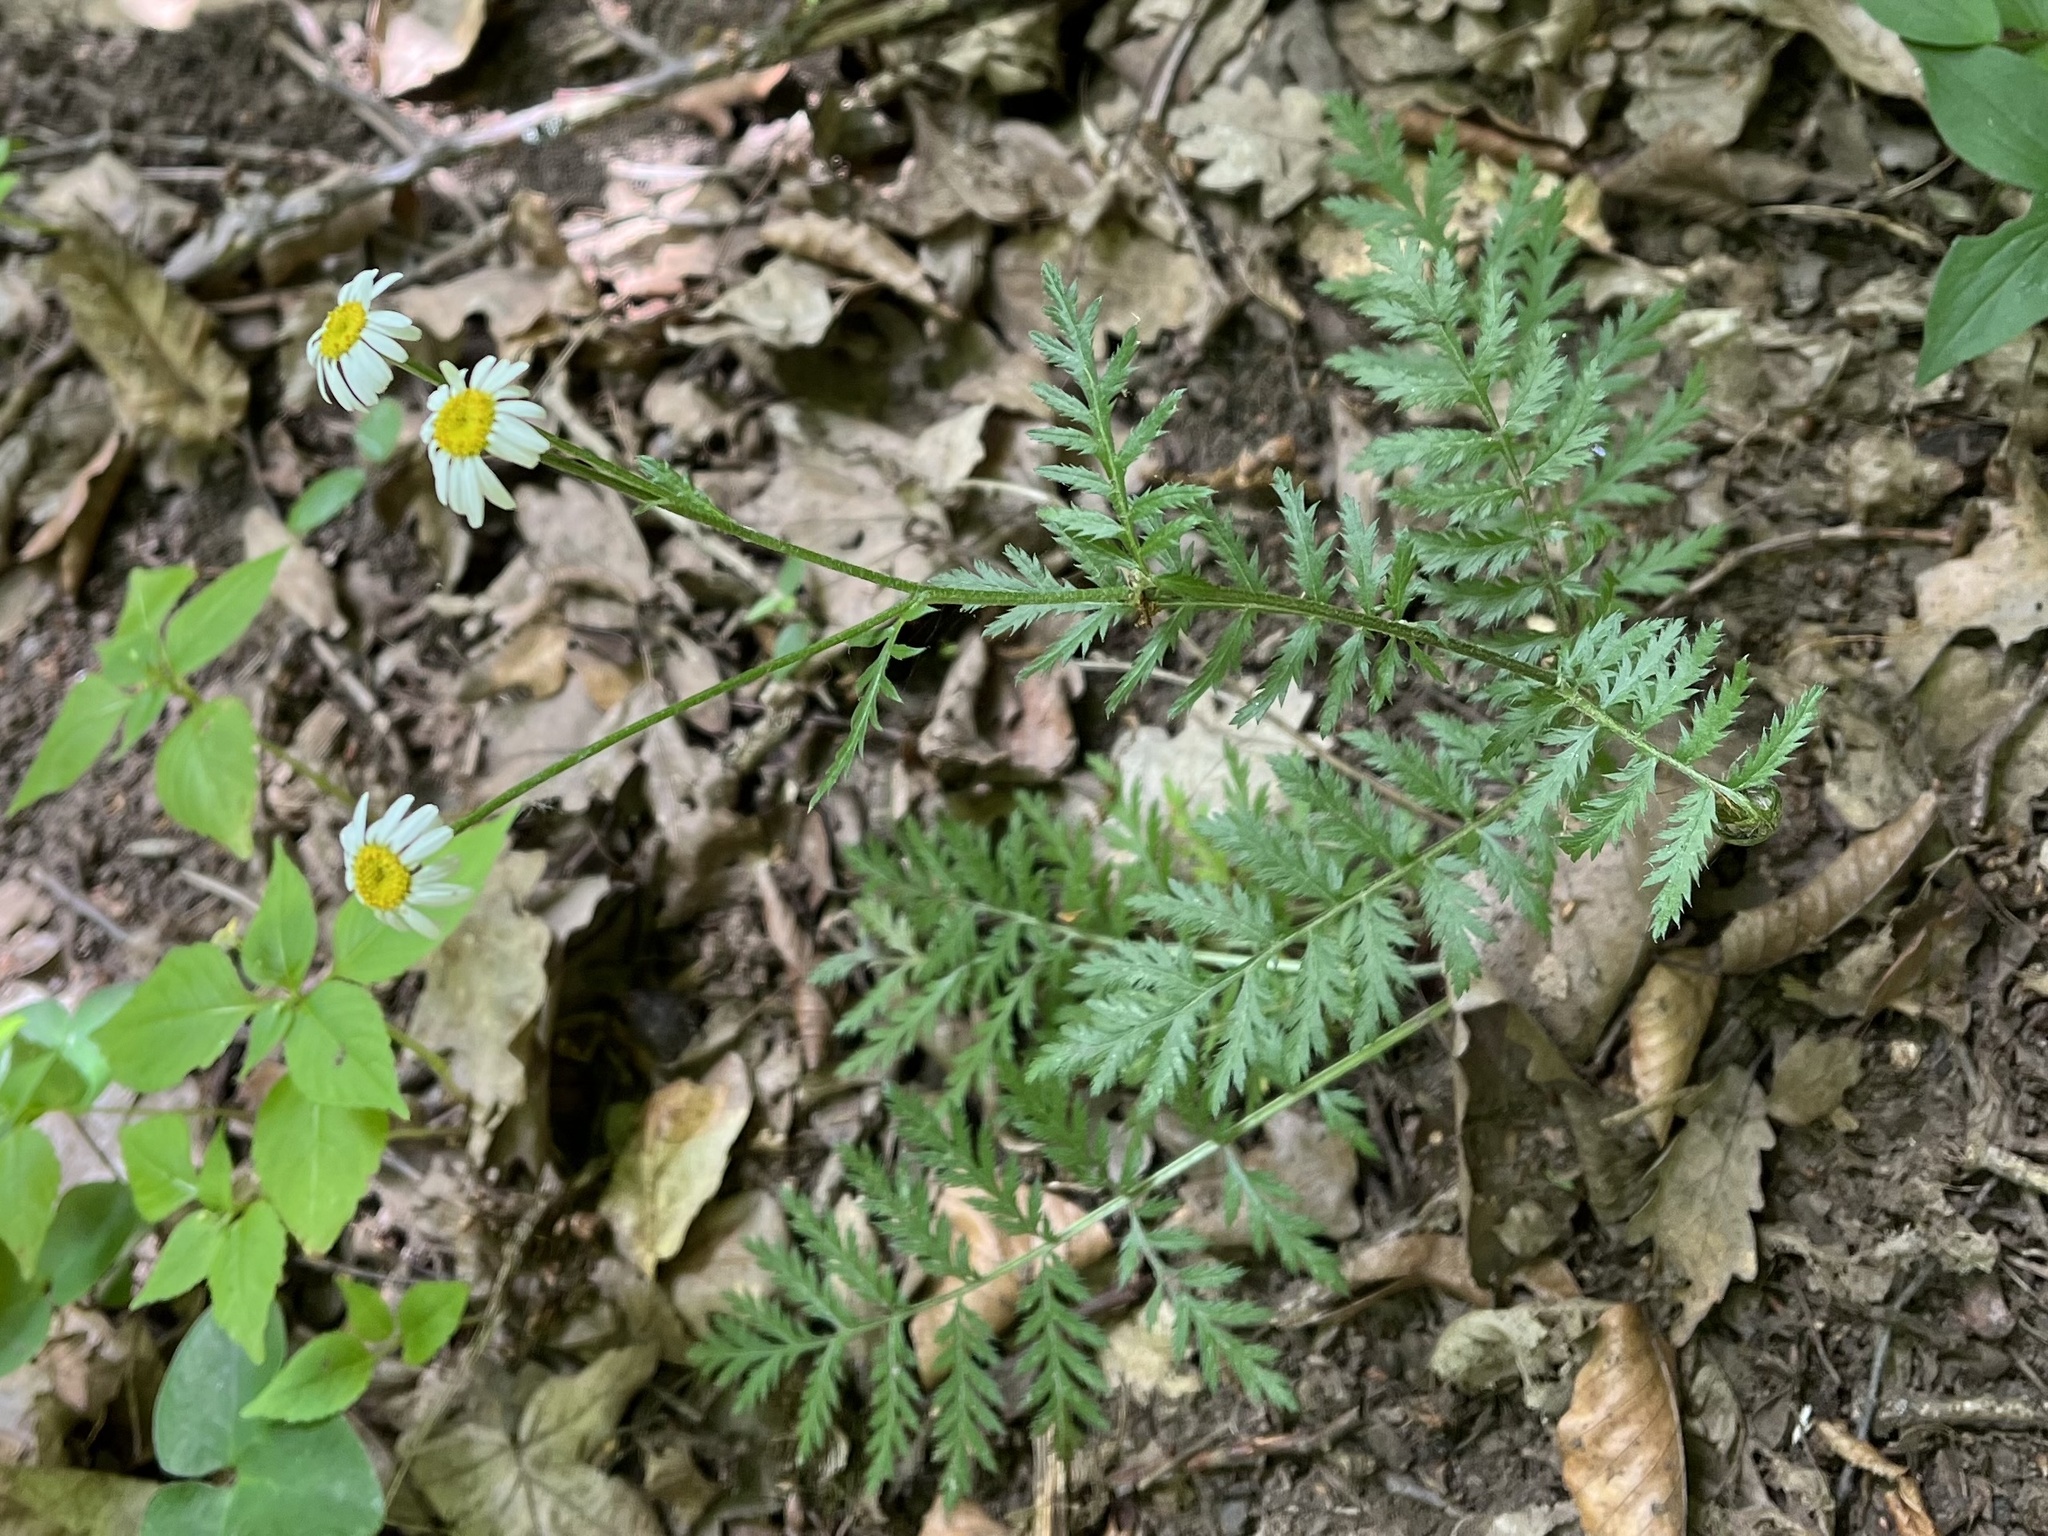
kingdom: Plantae
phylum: Tracheophyta
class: Magnoliopsida
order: Asterales
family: Asteraceae
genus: Tanacetum
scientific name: Tanacetum corymbosum
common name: Scentless feverfew
